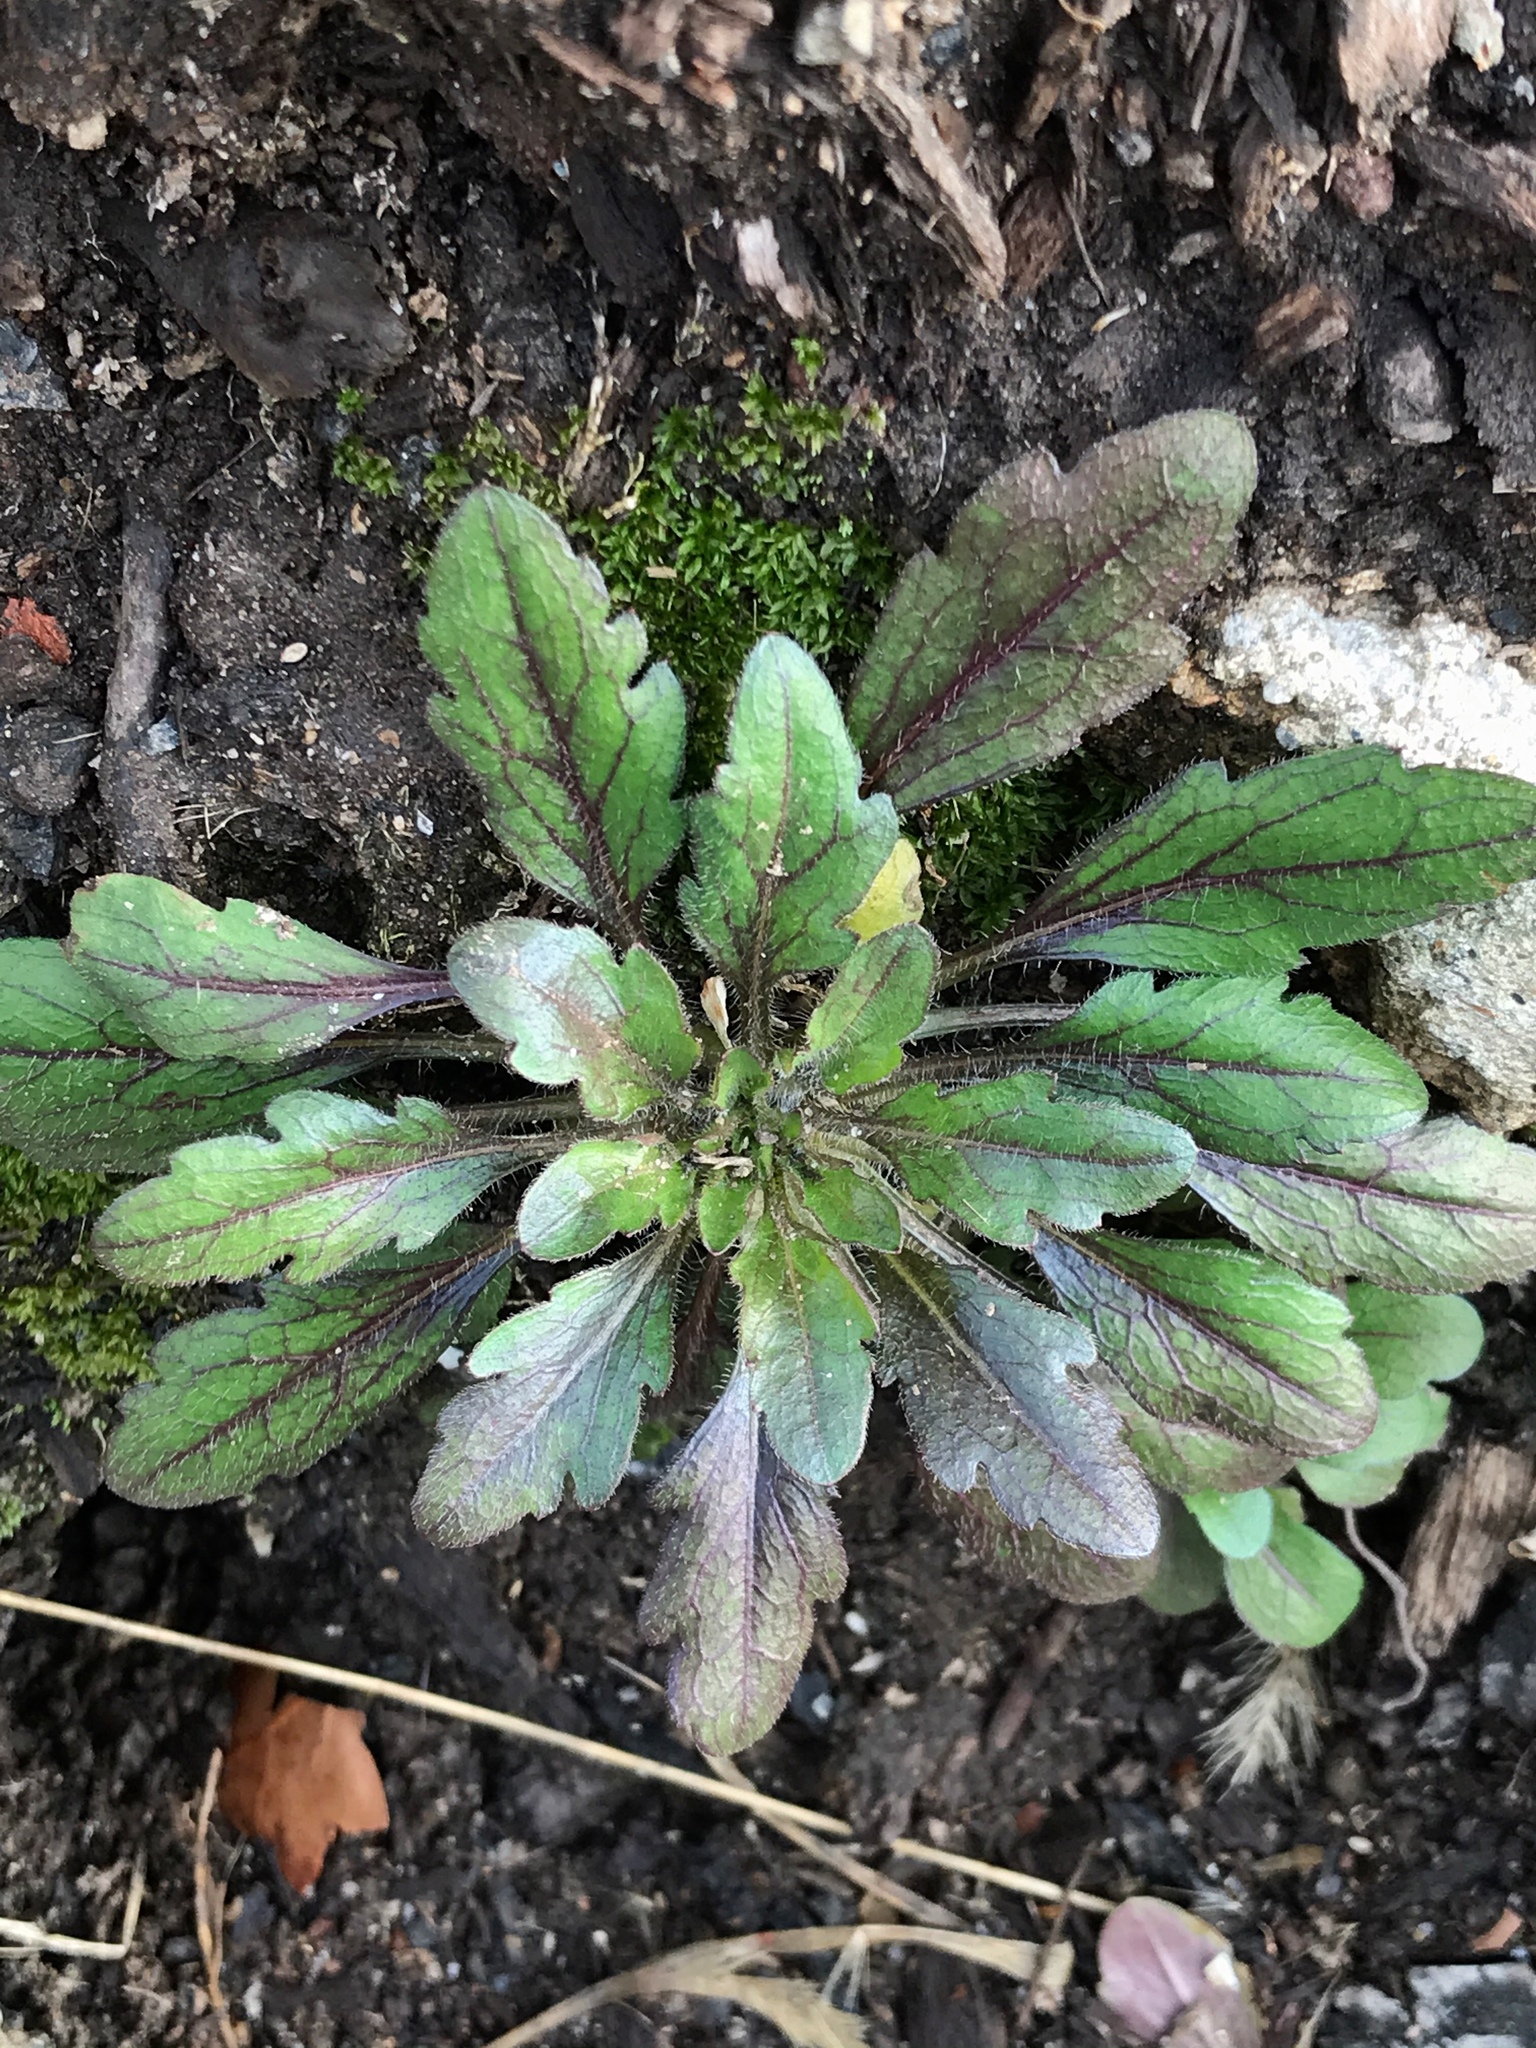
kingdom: Plantae
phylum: Tracheophyta
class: Magnoliopsida
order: Asterales
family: Asteraceae
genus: Erigeron
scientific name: Erigeron canadensis
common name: Canadian fleabane
